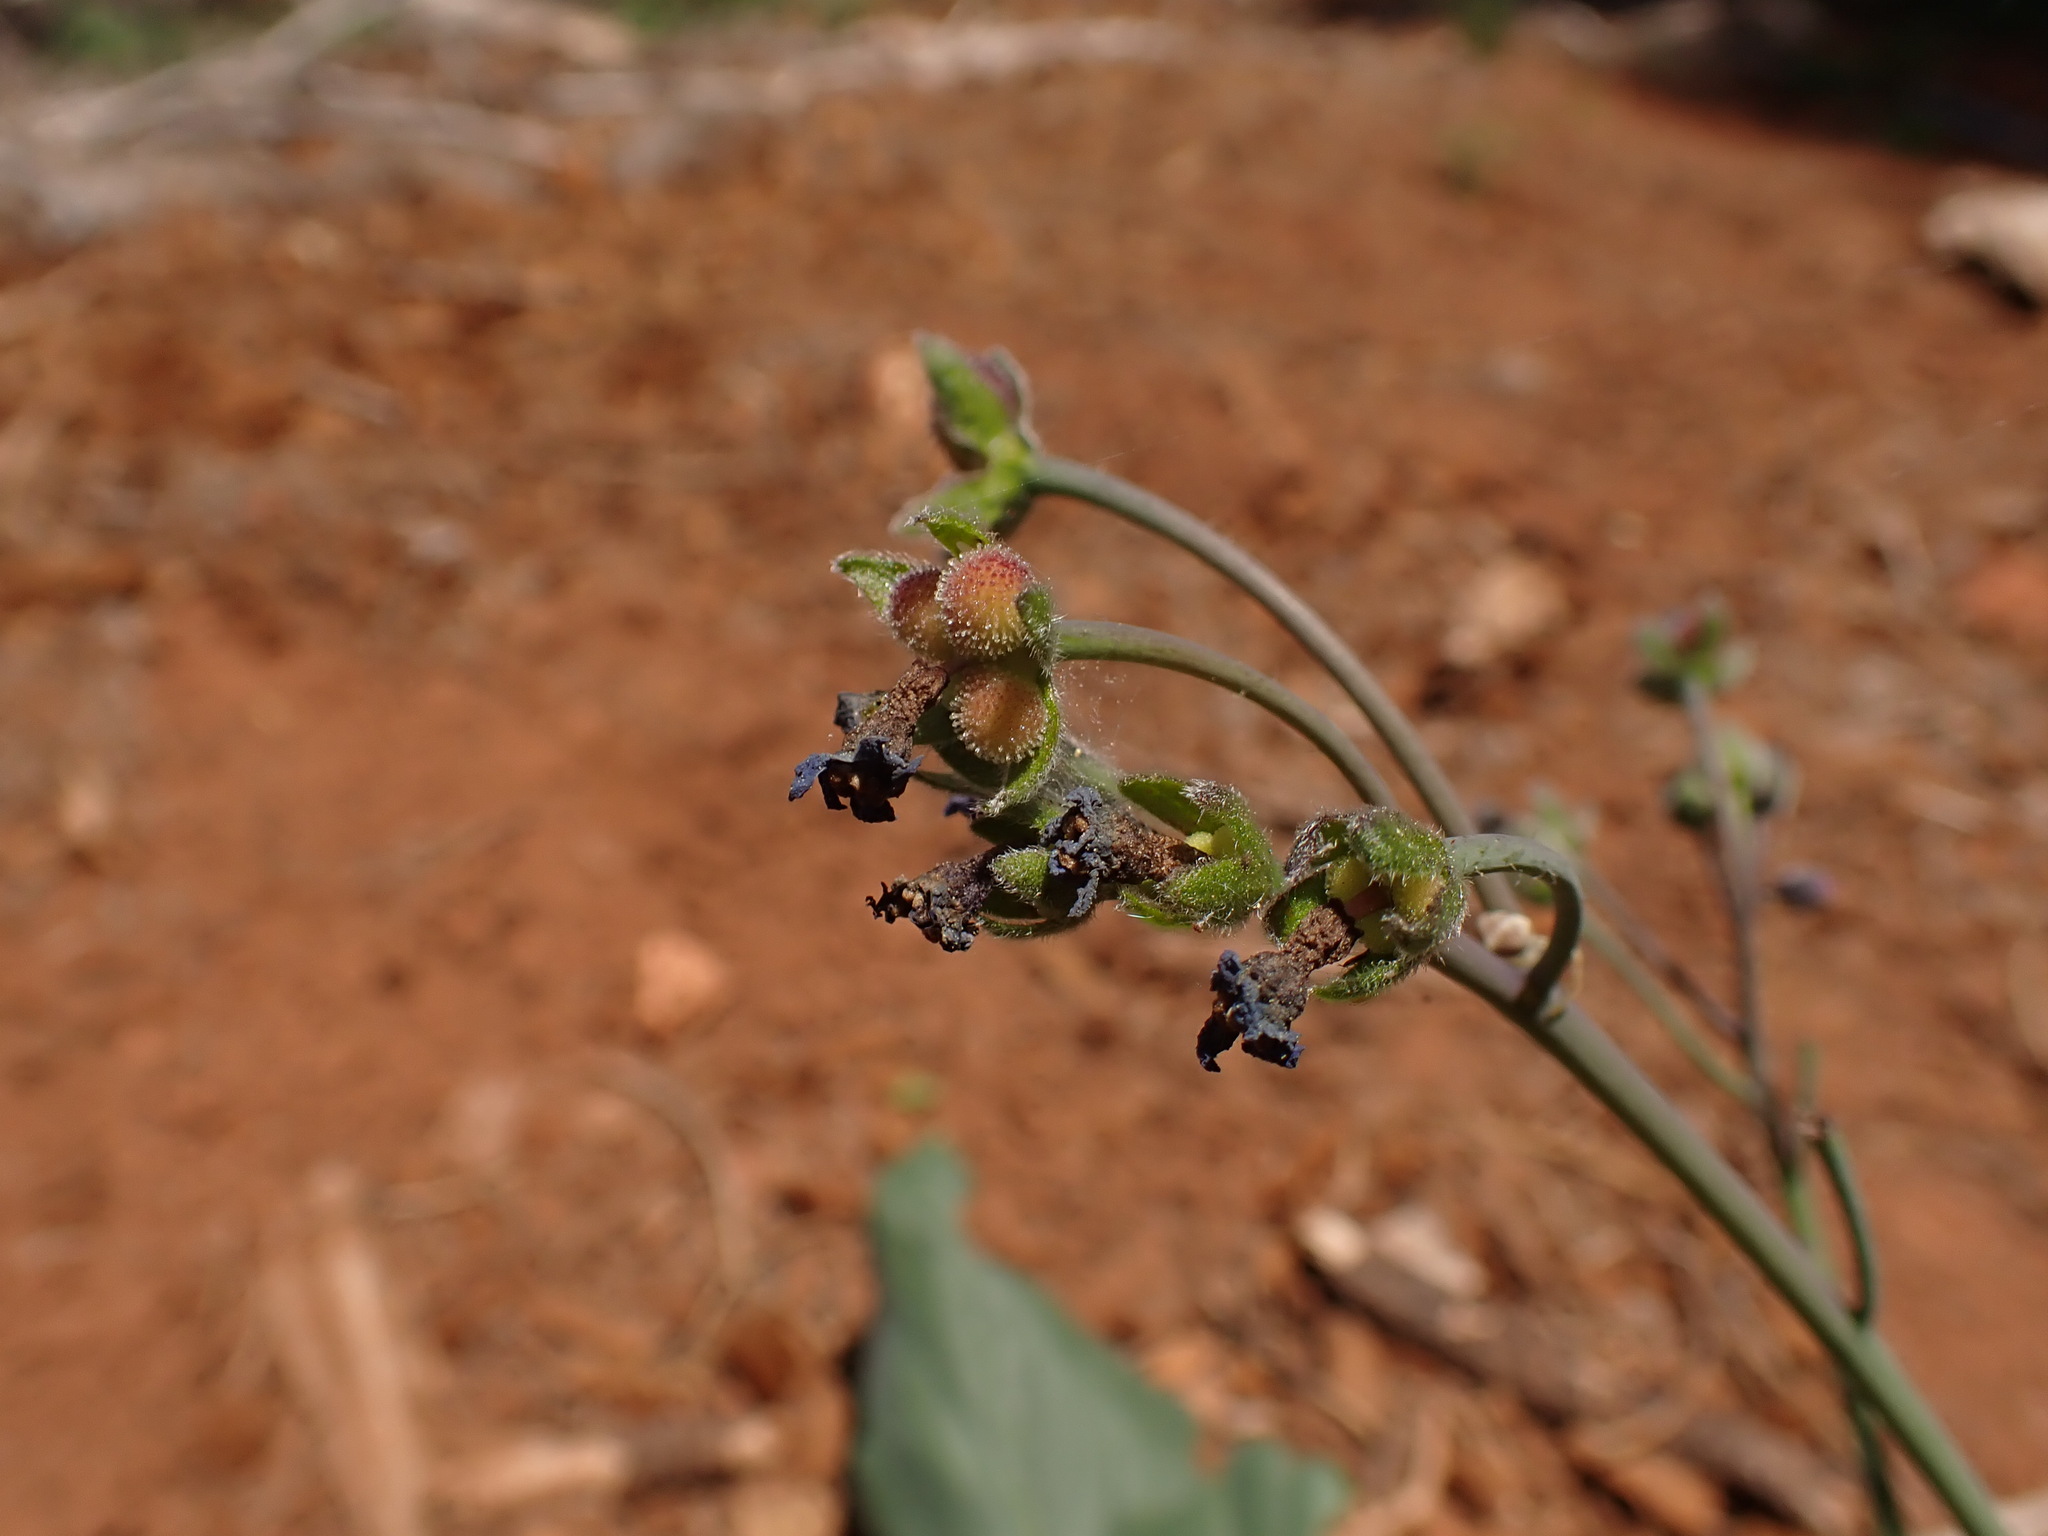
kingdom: Plantae
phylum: Tracheophyta
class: Magnoliopsida
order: Boraginales
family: Boraginaceae
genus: Adelinia
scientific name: Adelinia grande
